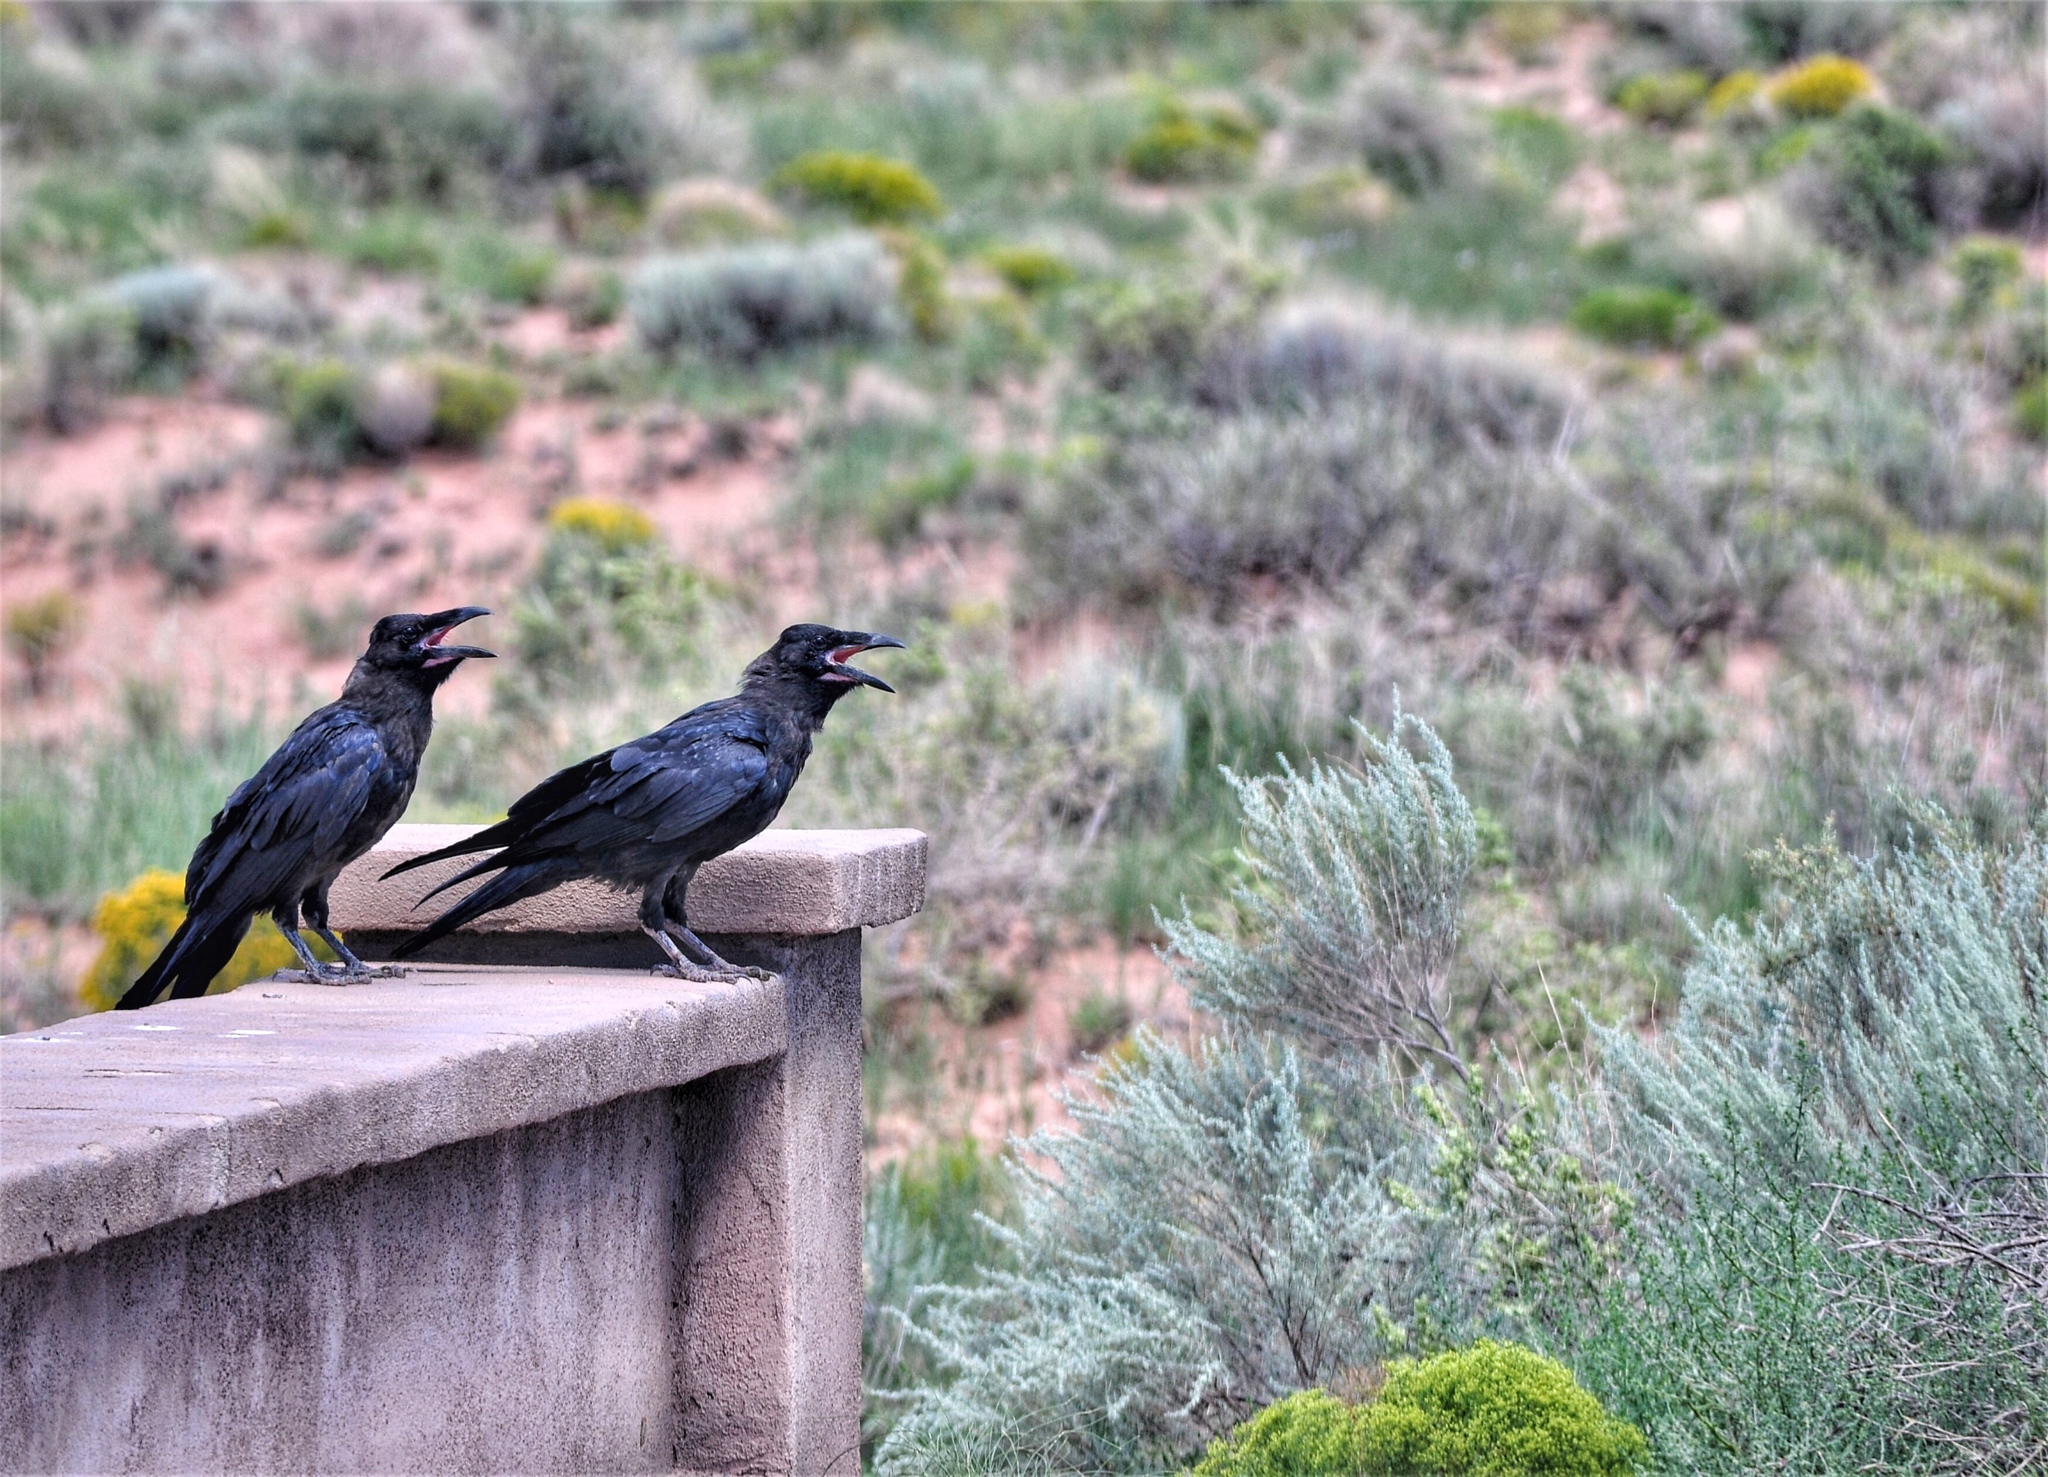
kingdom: Animalia
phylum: Chordata
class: Aves
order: Passeriformes
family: Corvidae
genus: Corvus
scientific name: Corvus corax
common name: Common raven
